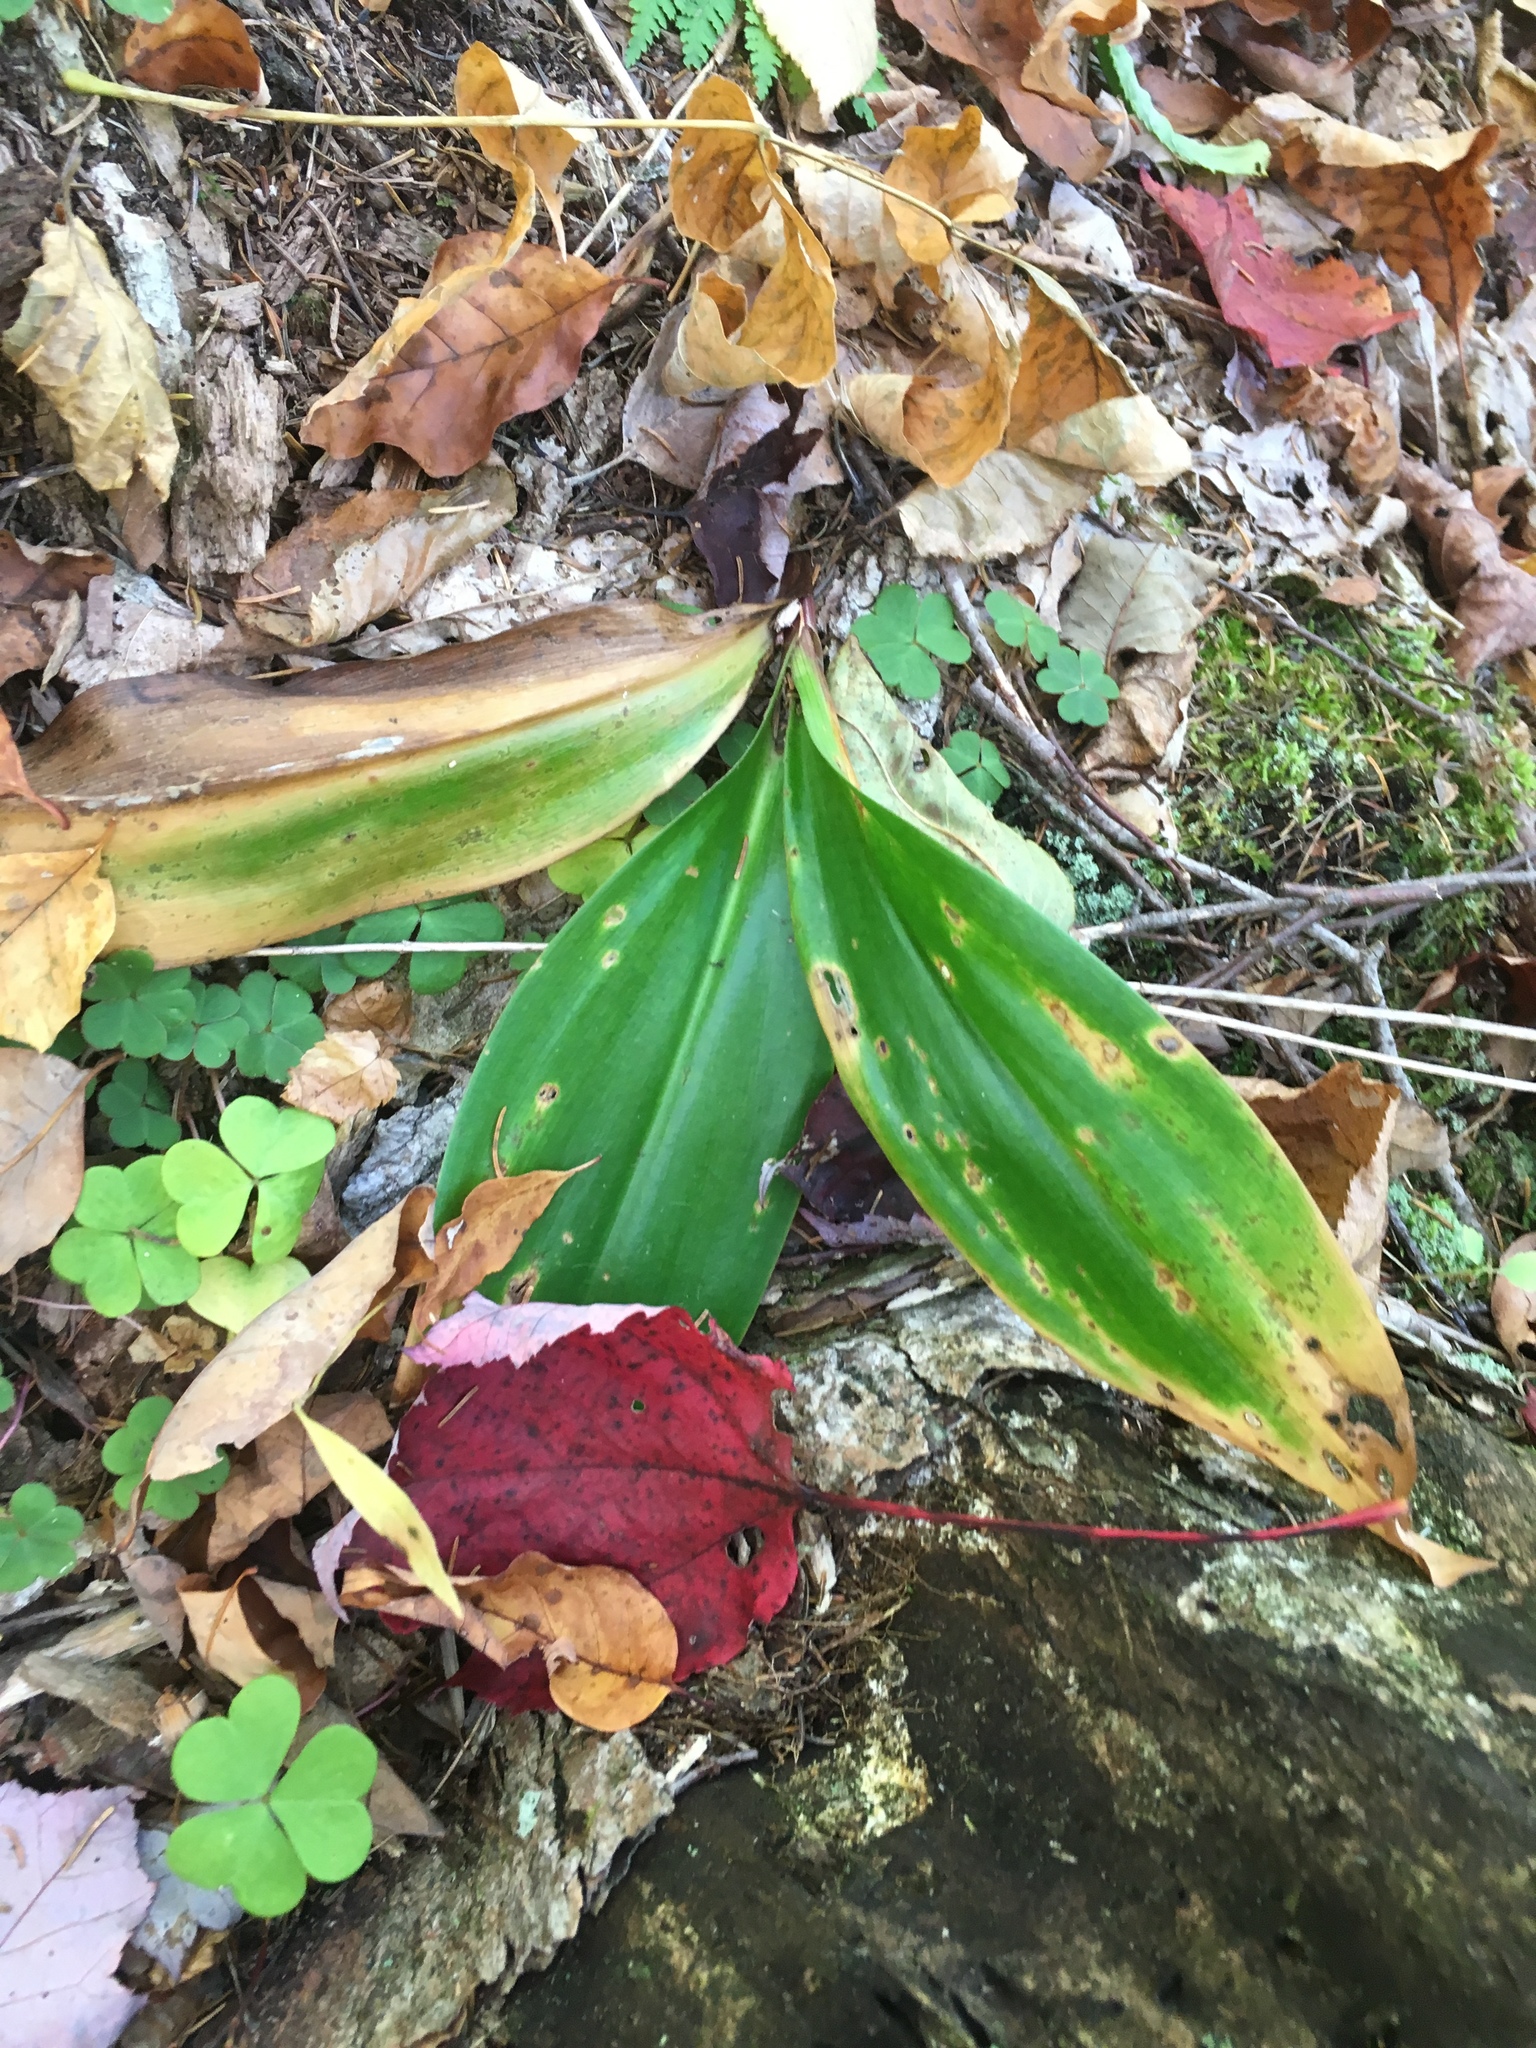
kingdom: Plantae
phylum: Tracheophyta
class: Liliopsida
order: Liliales
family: Liliaceae
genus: Clintonia
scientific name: Clintonia borealis
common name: Yellow clintonia
